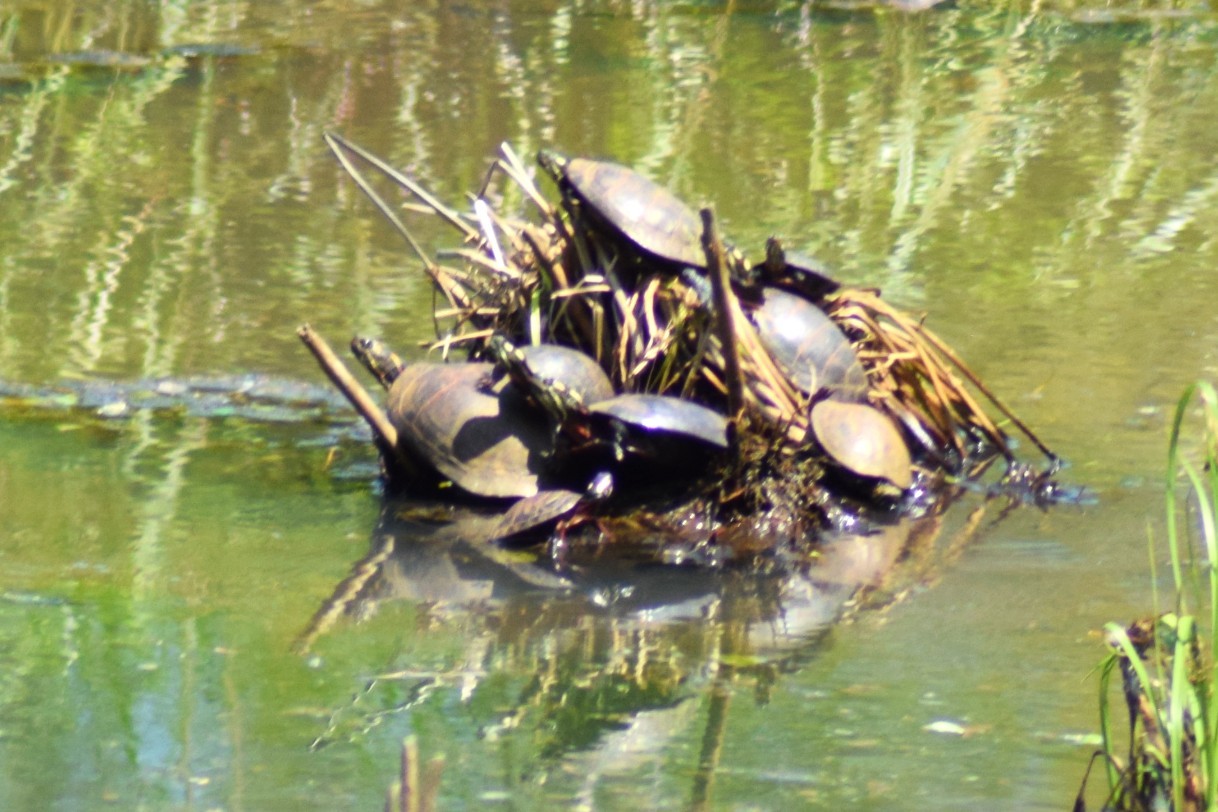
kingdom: Animalia
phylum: Chordata
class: Testudines
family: Emydidae
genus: Chrysemys
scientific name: Chrysemys picta
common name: Painted turtle
